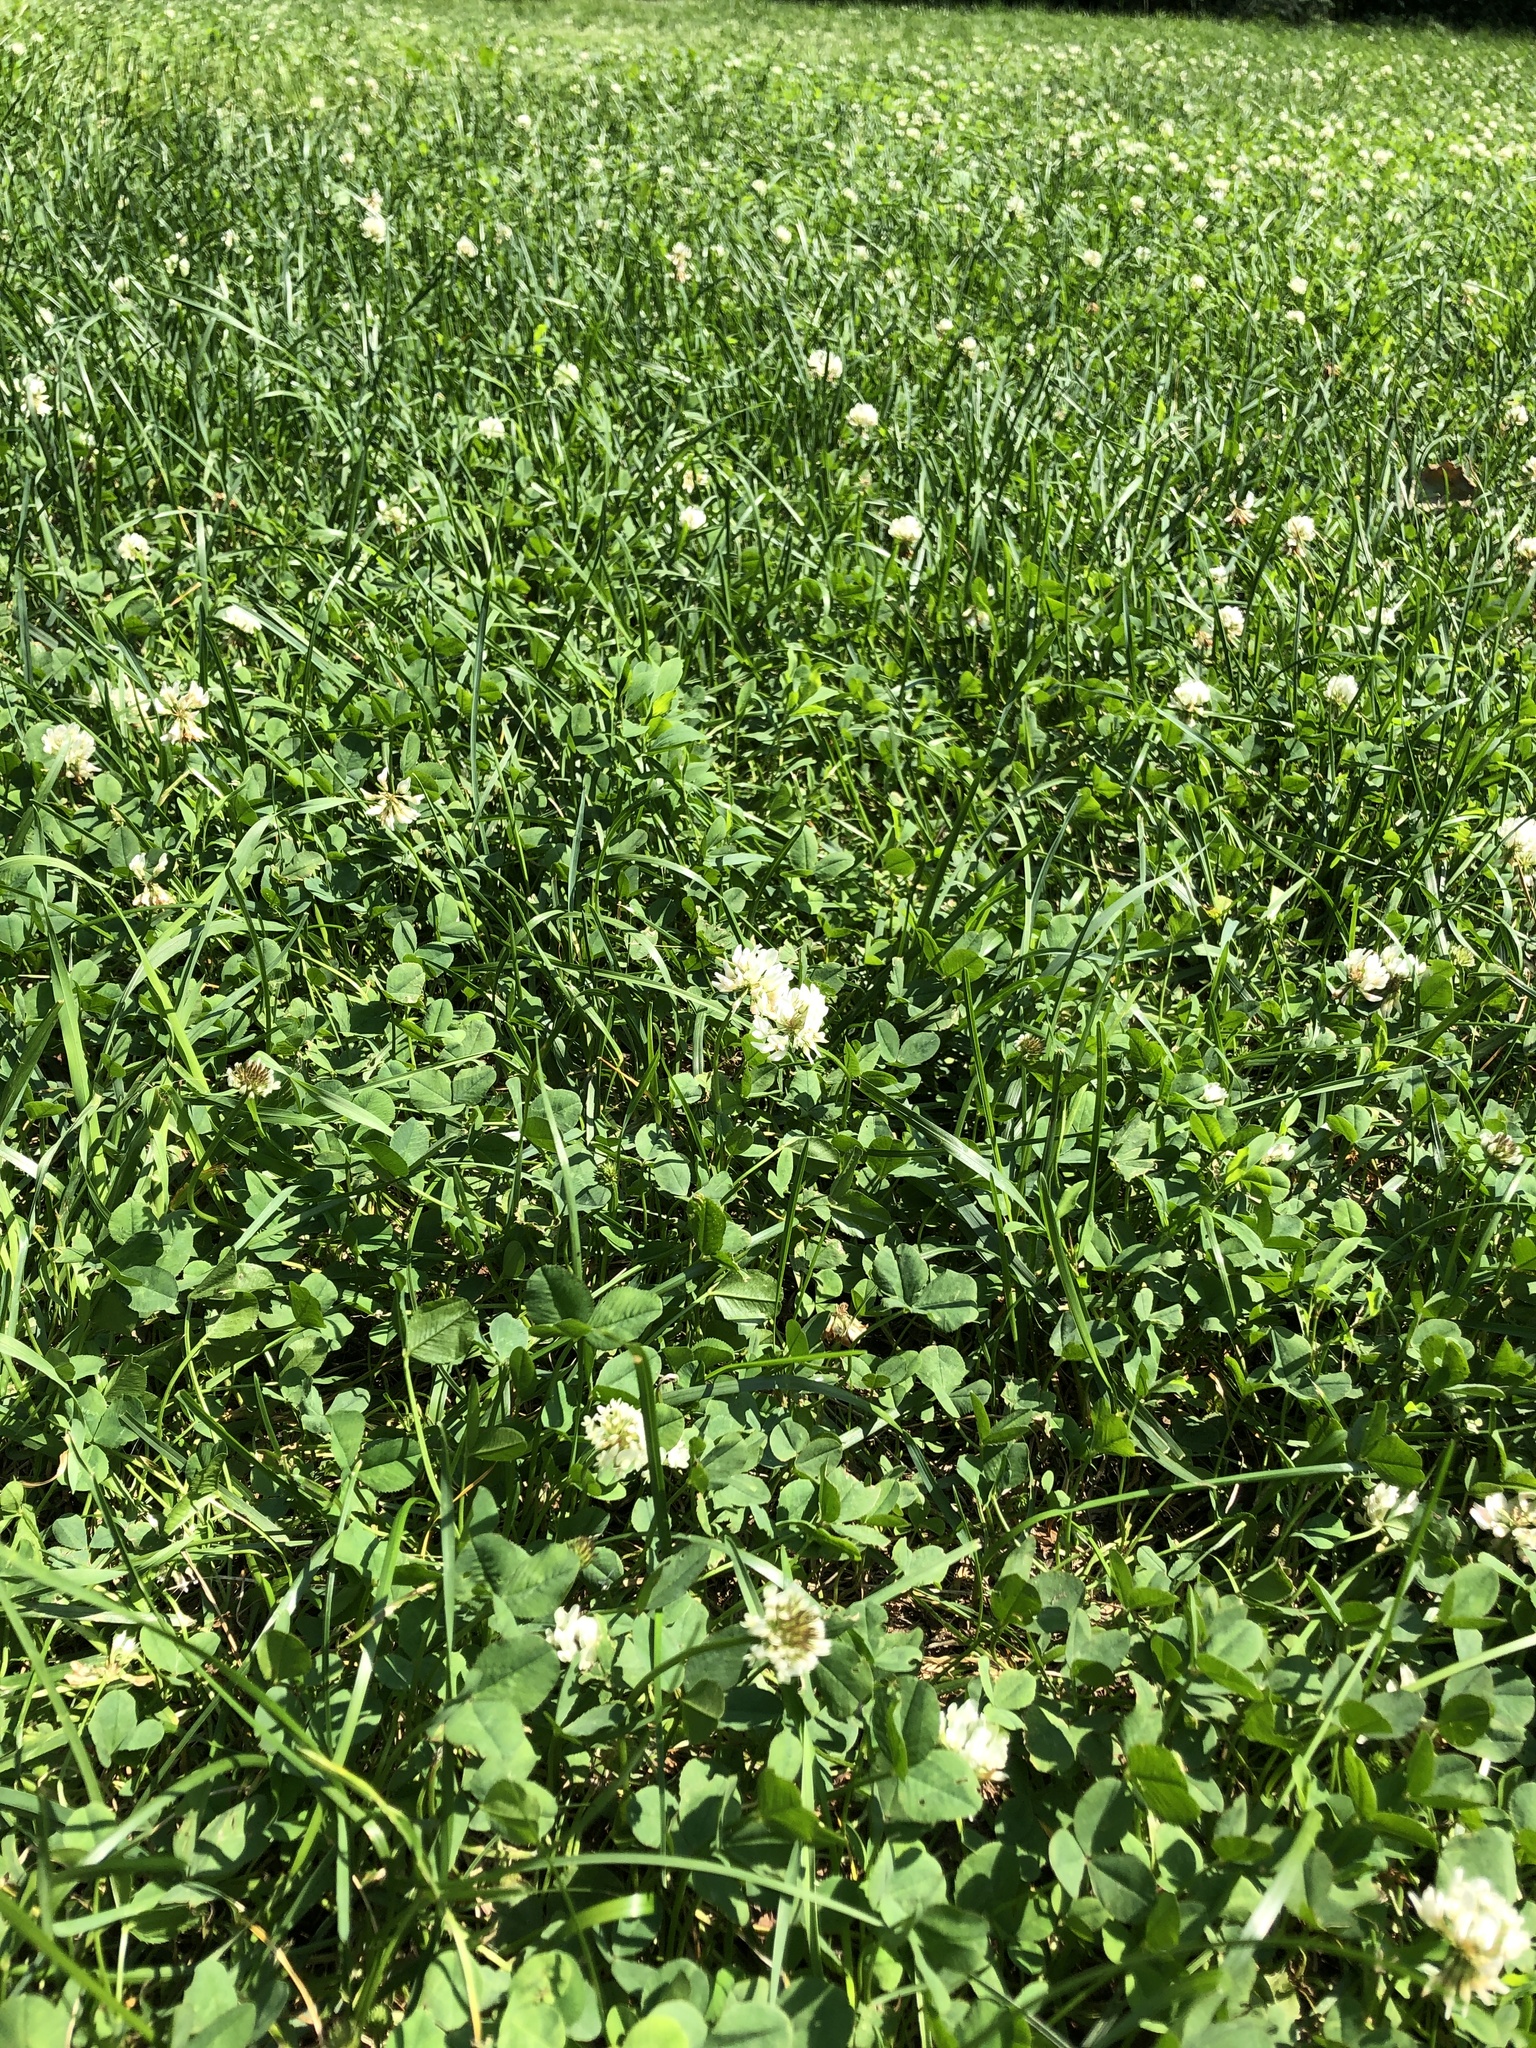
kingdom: Plantae
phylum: Tracheophyta
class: Magnoliopsida
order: Fabales
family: Fabaceae
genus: Trifolium
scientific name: Trifolium repens
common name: White clover
